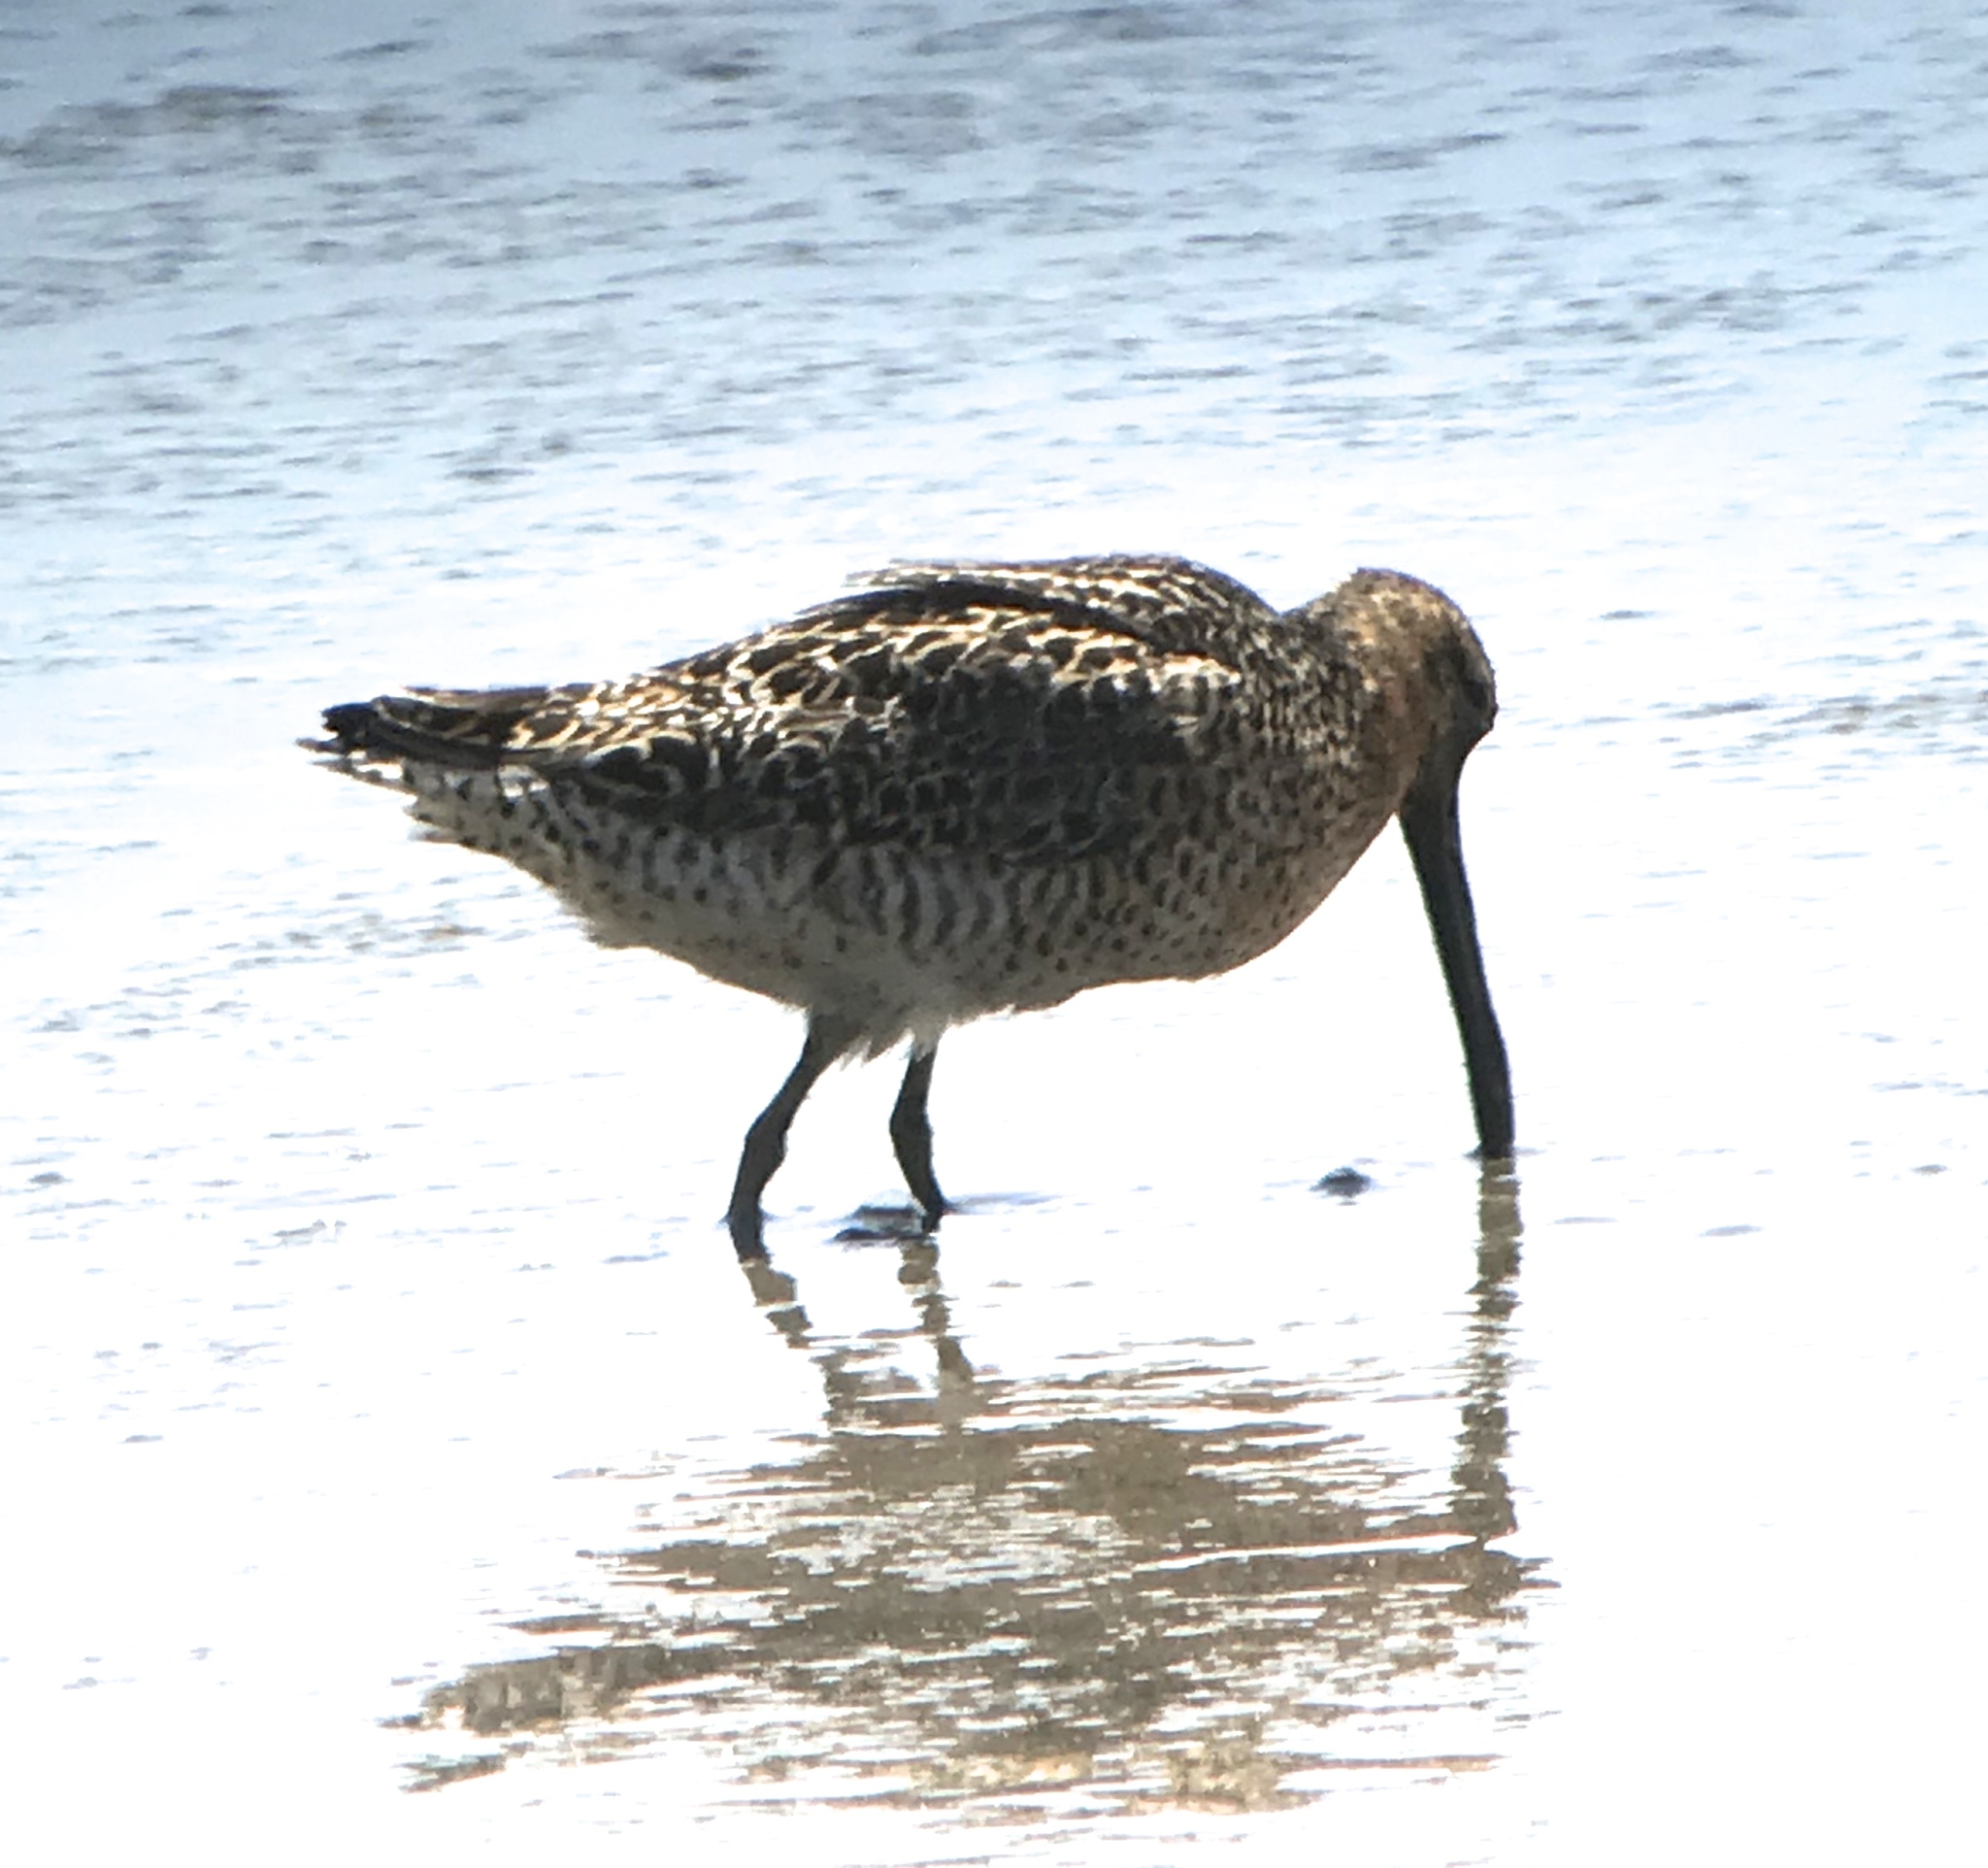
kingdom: Animalia
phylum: Chordata
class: Aves
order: Charadriiformes
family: Scolopacidae
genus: Limnodromus
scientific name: Limnodromus griseus
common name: Short-billed dowitcher
